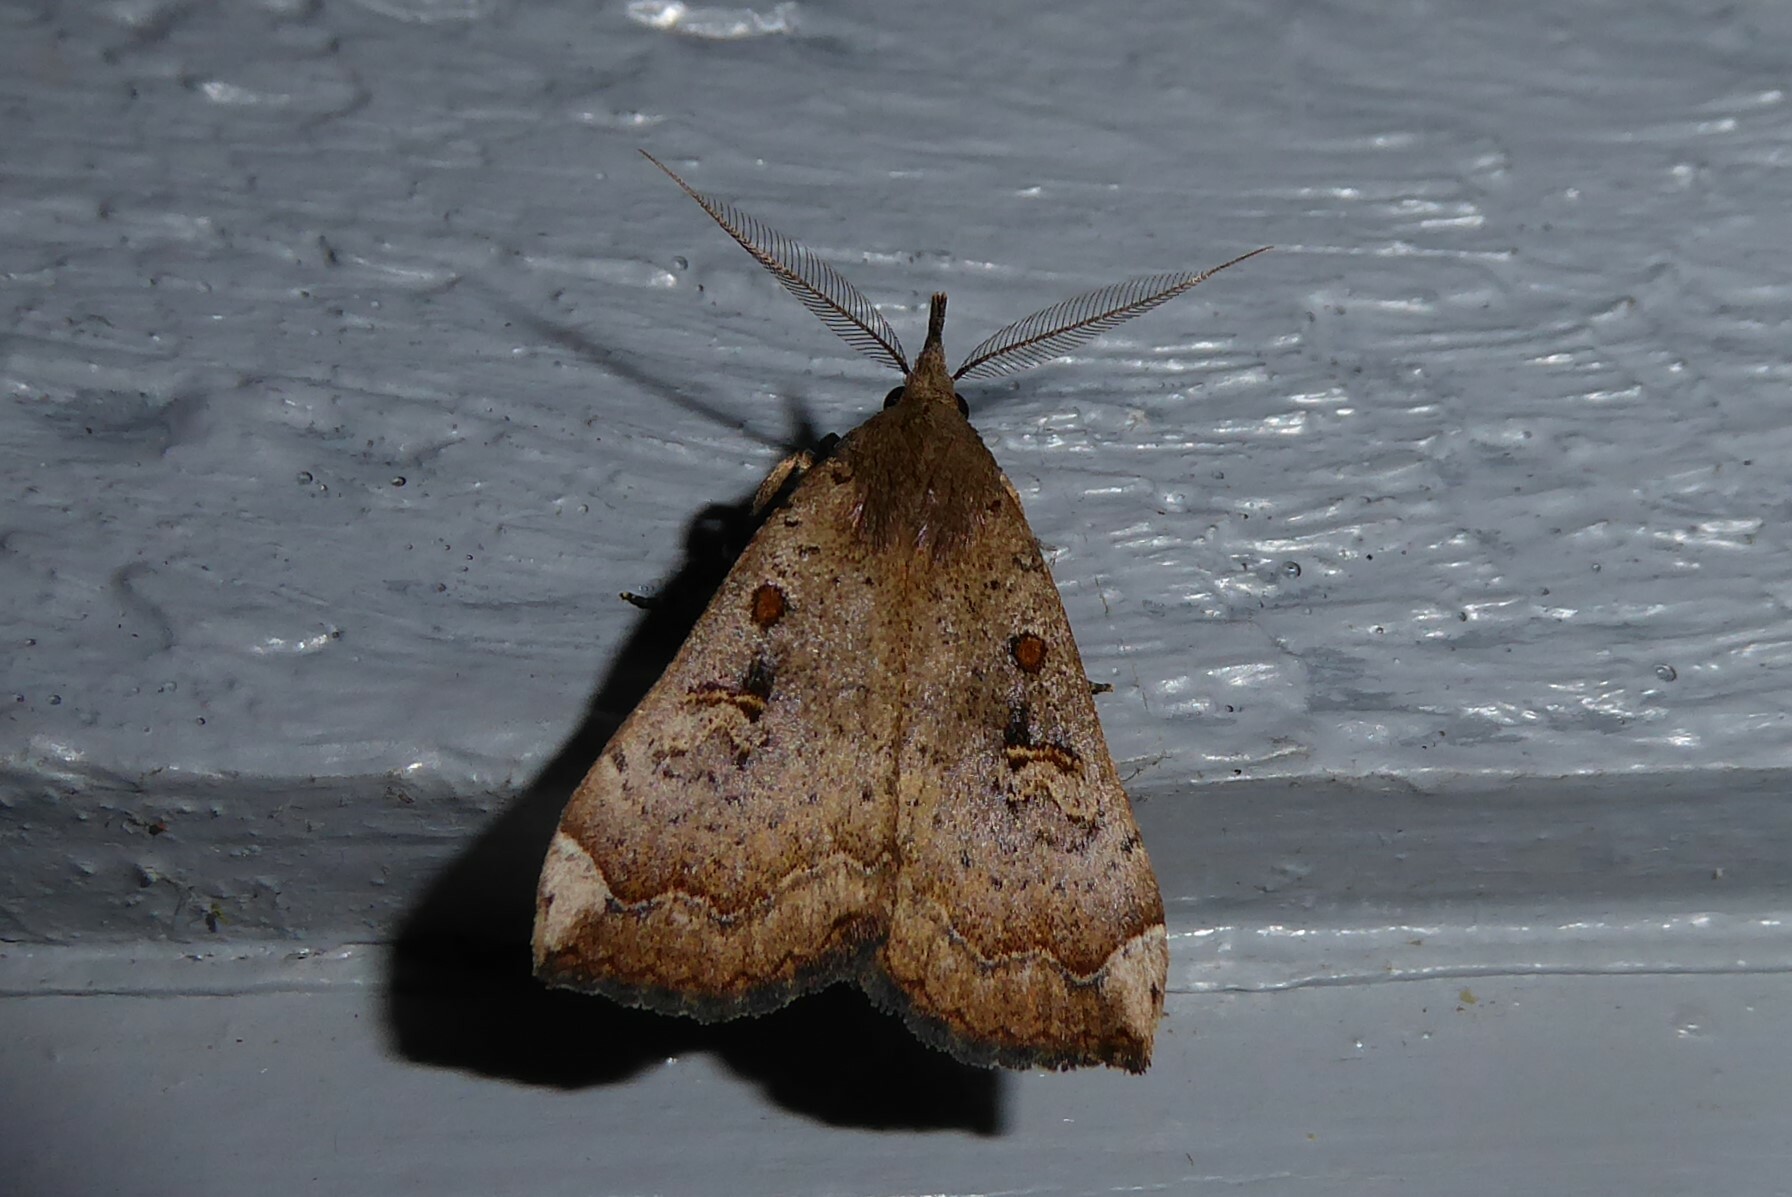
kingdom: Animalia
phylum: Arthropoda
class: Insecta
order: Lepidoptera
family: Erebidae
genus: Rhapsa
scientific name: Rhapsa scotosialis
